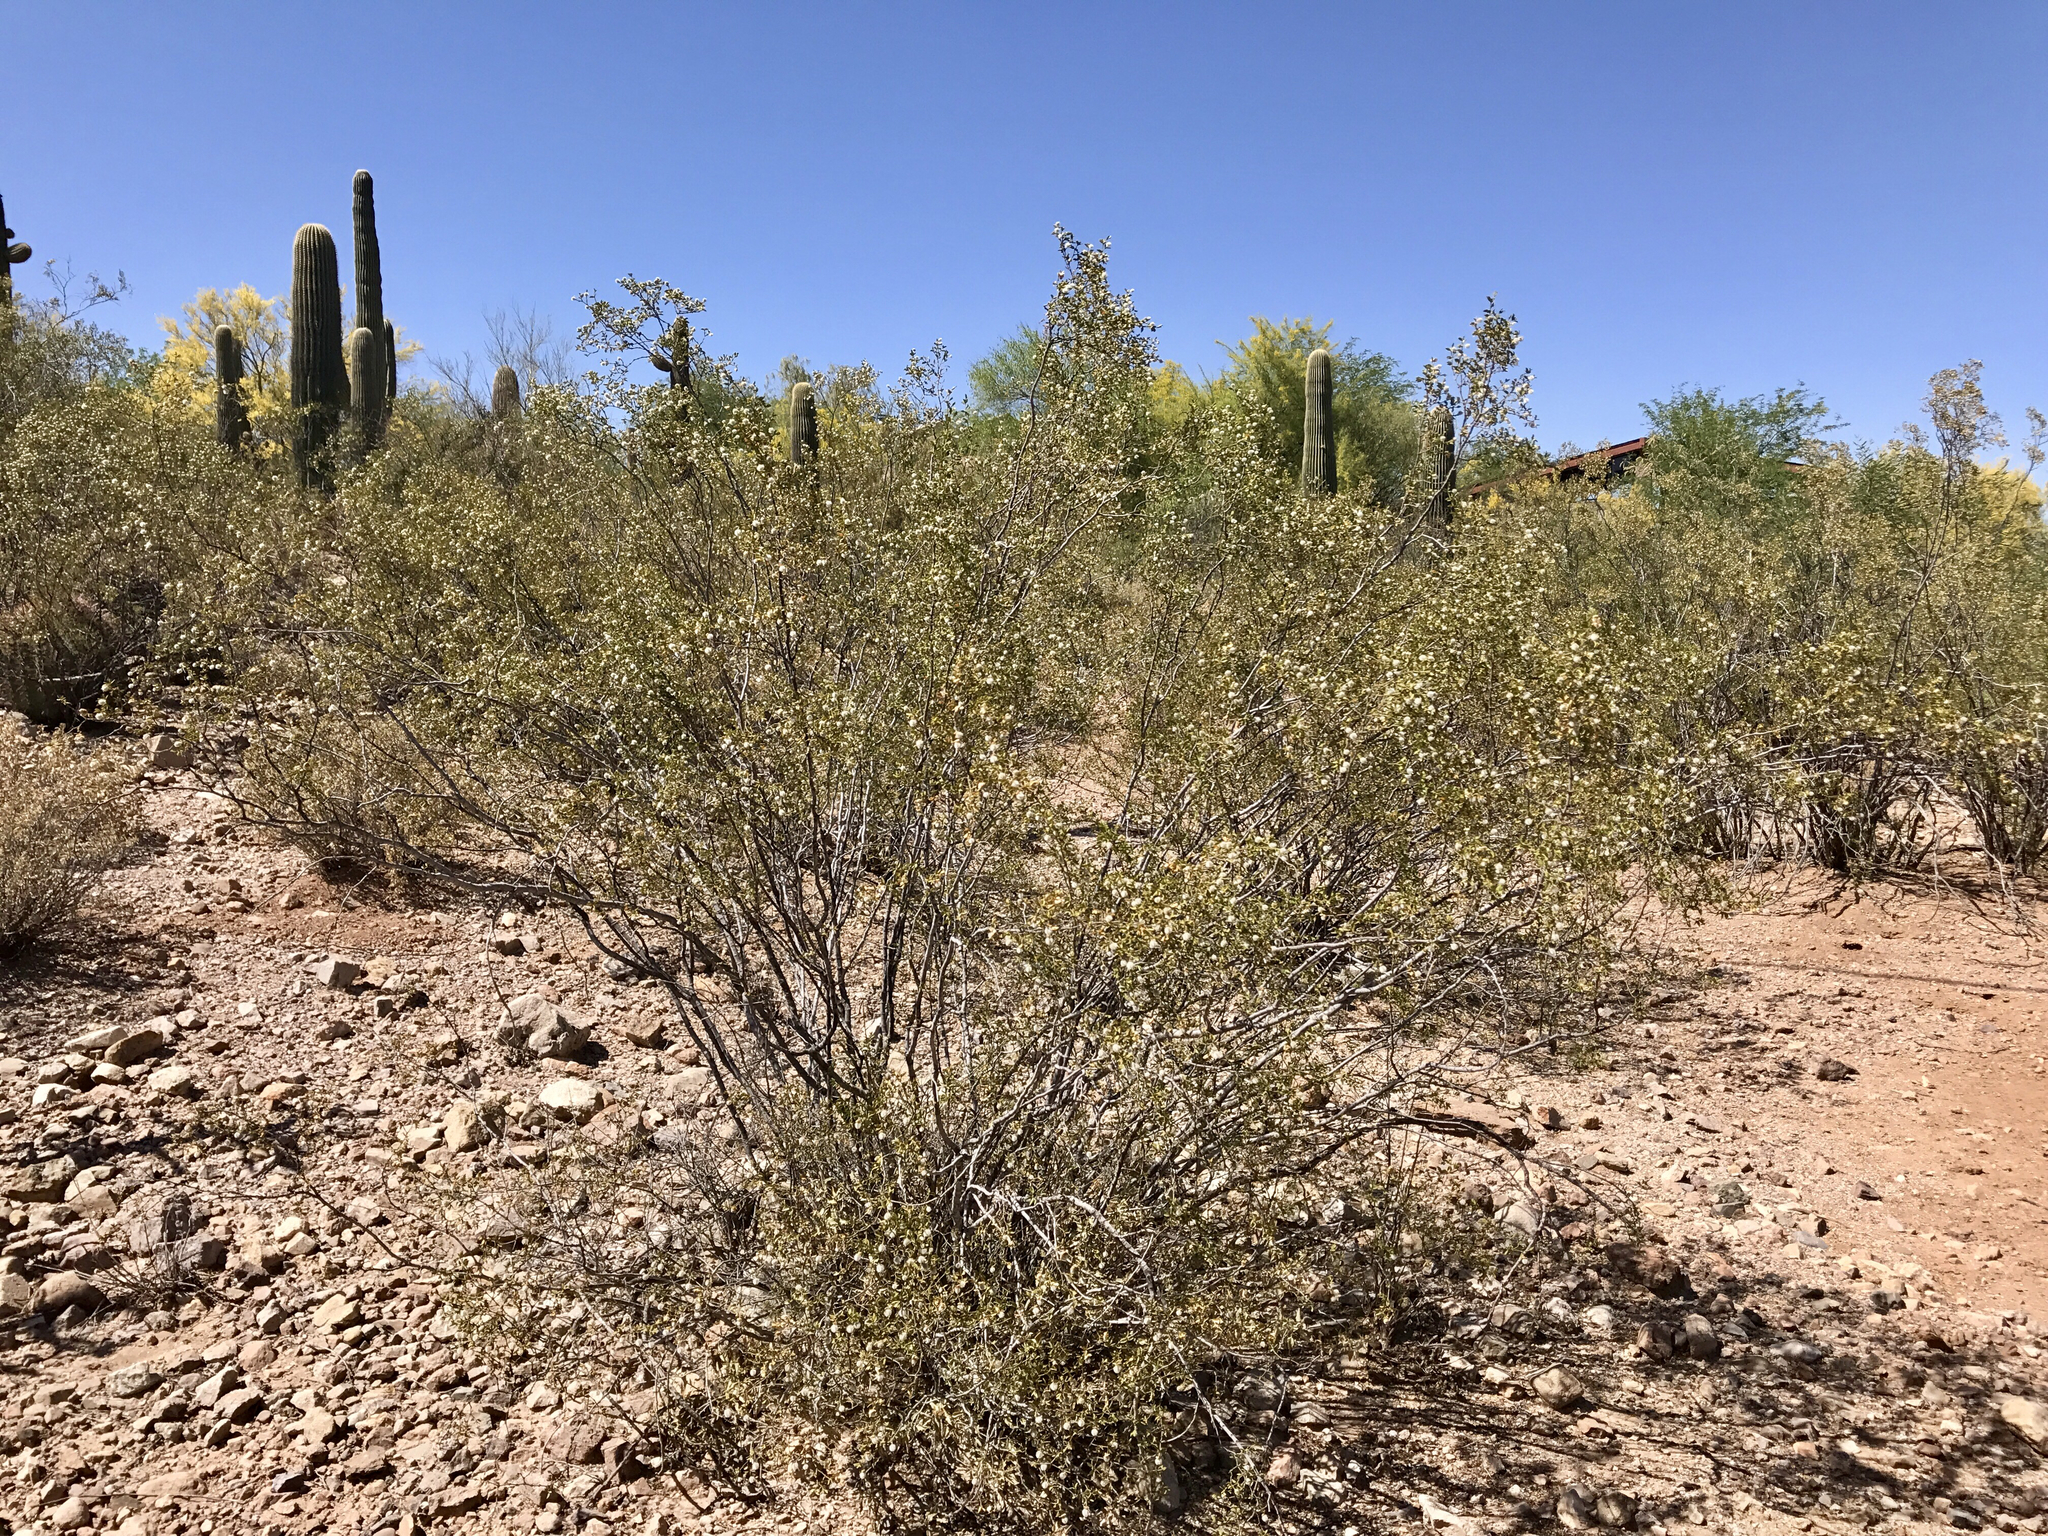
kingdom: Plantae
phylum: Tracheophyta
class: Magnoliopsida
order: Zygophyllales
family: Zygophyllaceae
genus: Larrea
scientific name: Larrea tridentata
